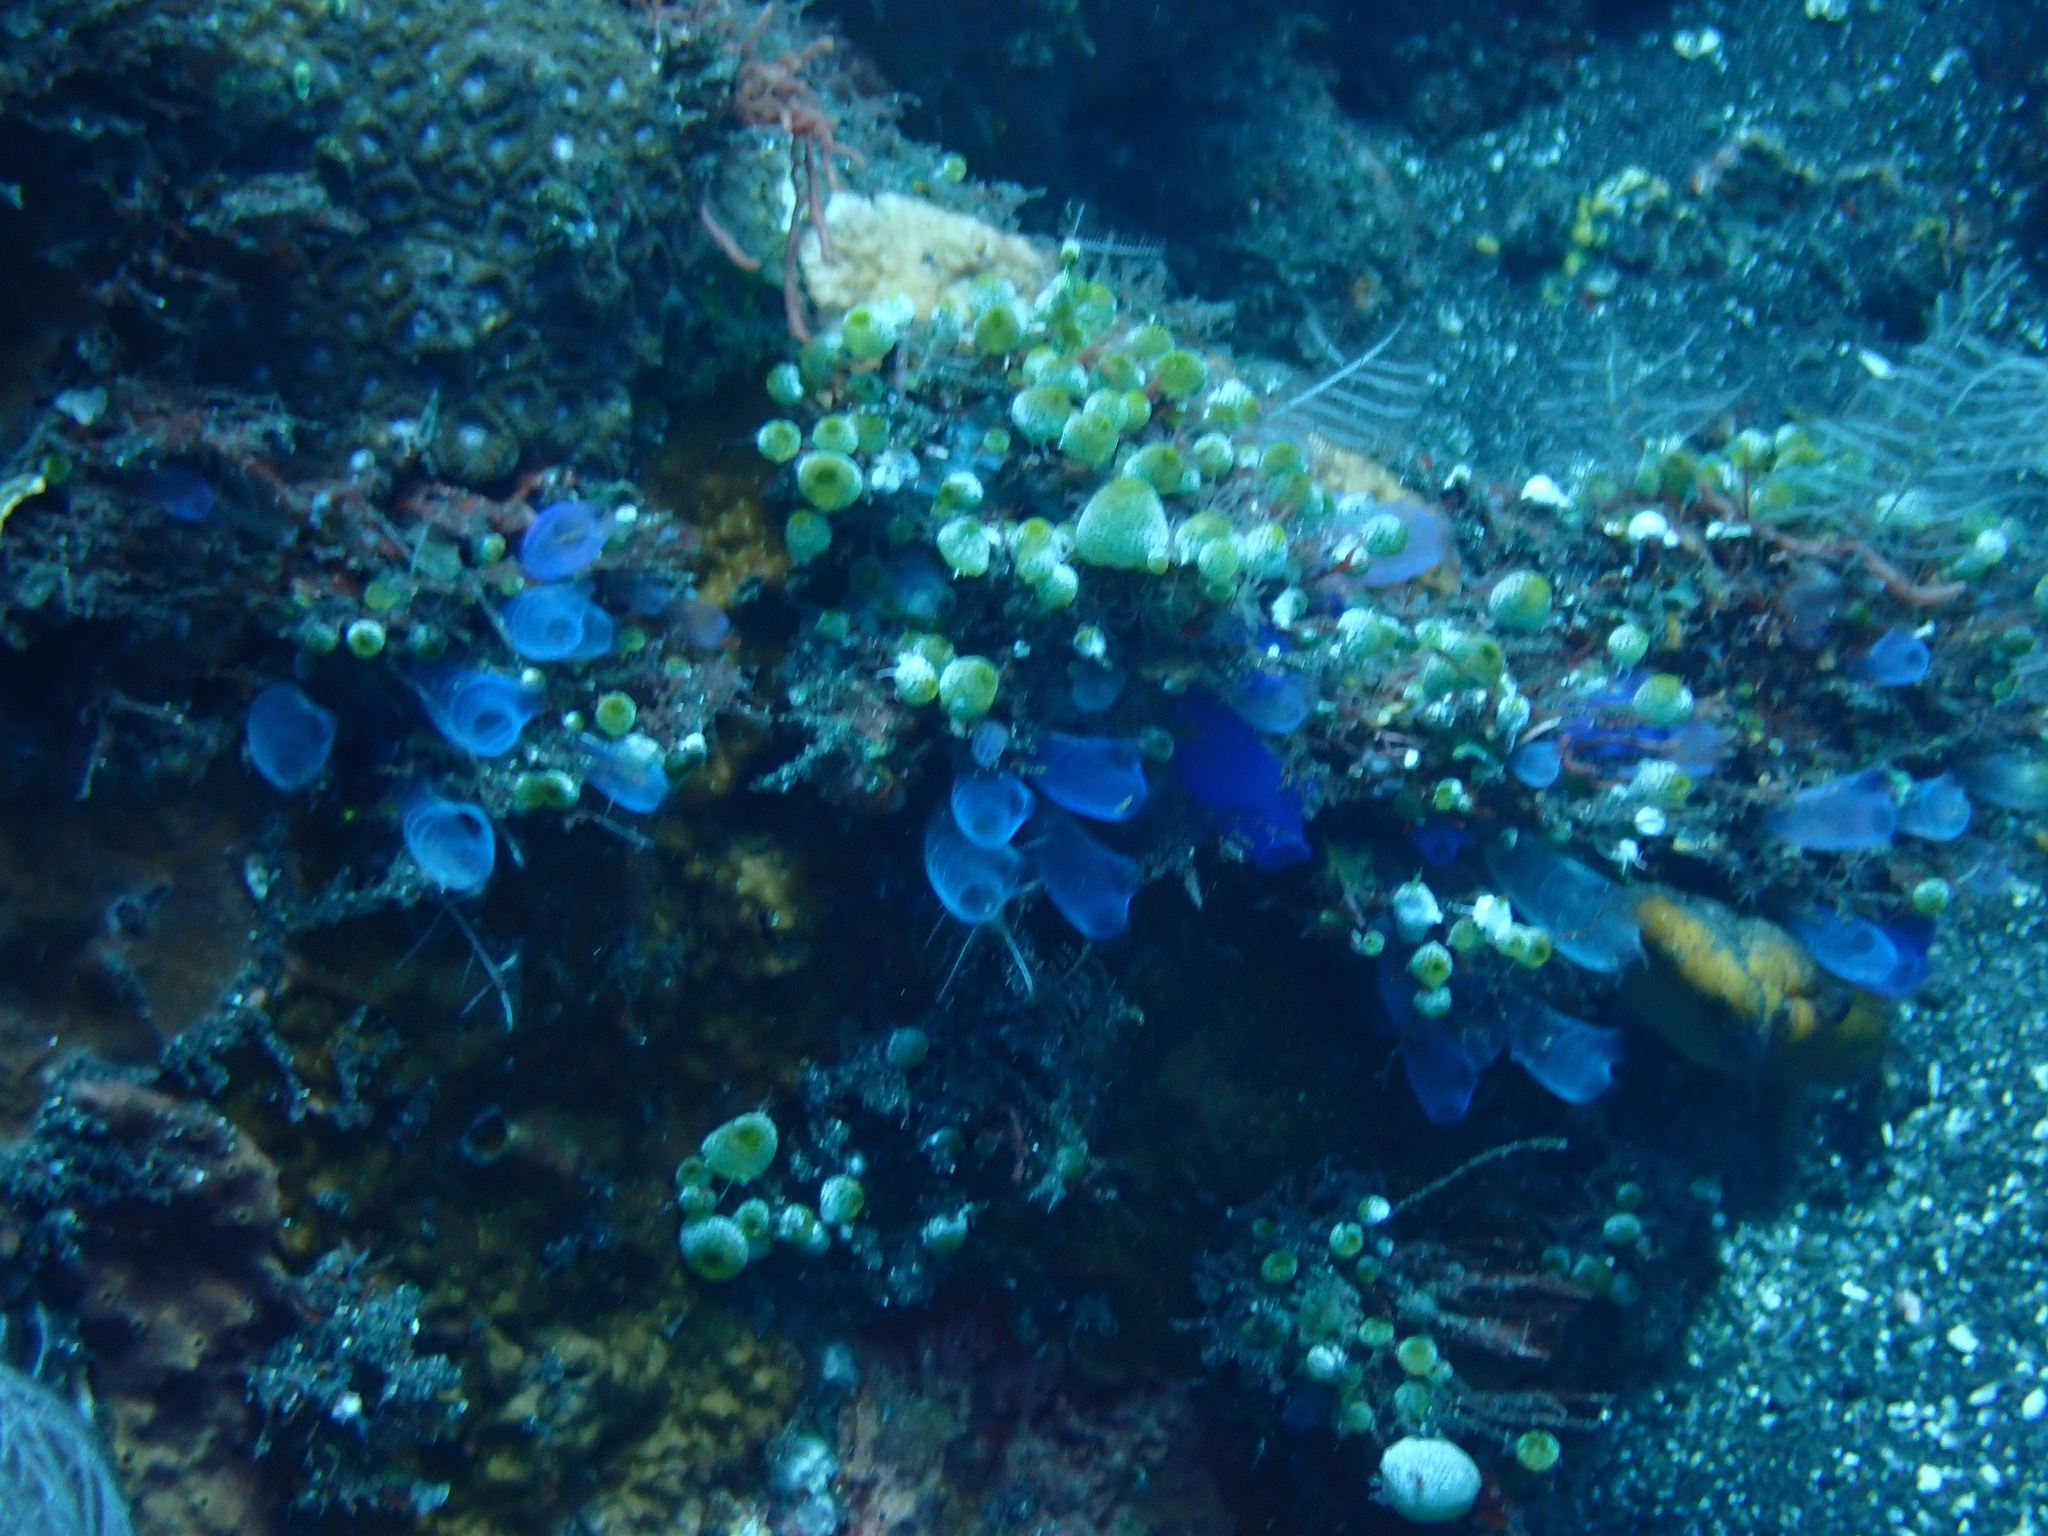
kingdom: Animalia
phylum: Chordata
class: Ascidiacea
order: Aplousobranchia
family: Diazonidae
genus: Rhopalaea
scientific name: Rhopalaea fusca
